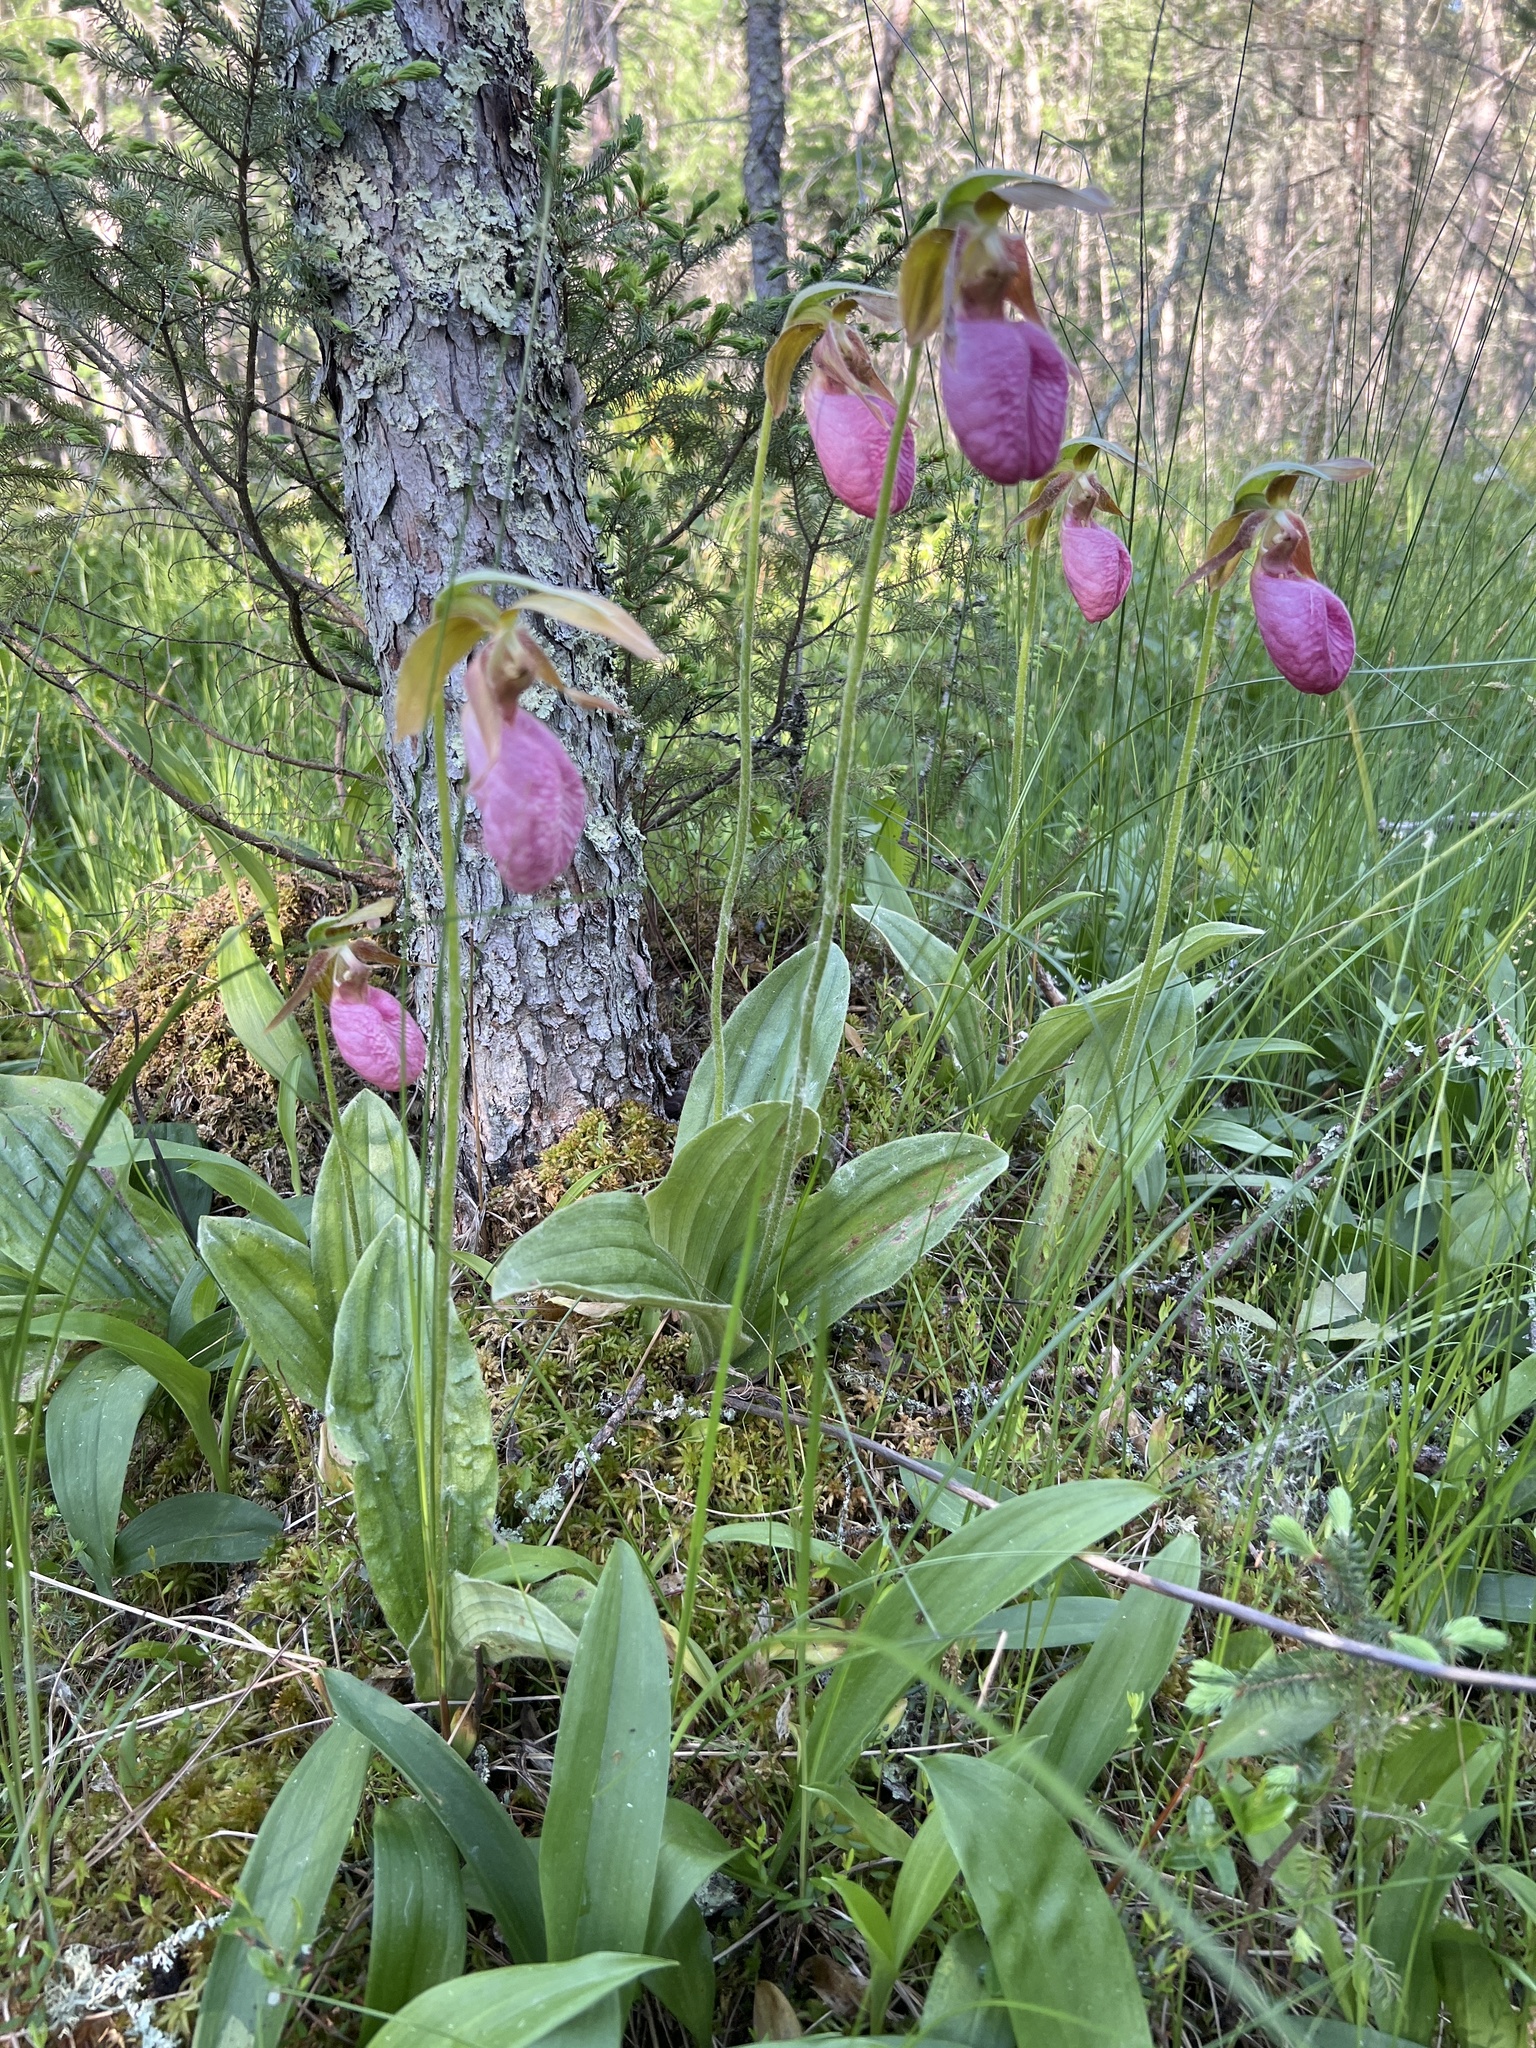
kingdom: Plantae
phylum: Tracheophyta
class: Liliopsida
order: Asparagales
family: Orchidaceae
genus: Cypripedium
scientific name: Cypripedium acaule
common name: Pink lady's-slipper
